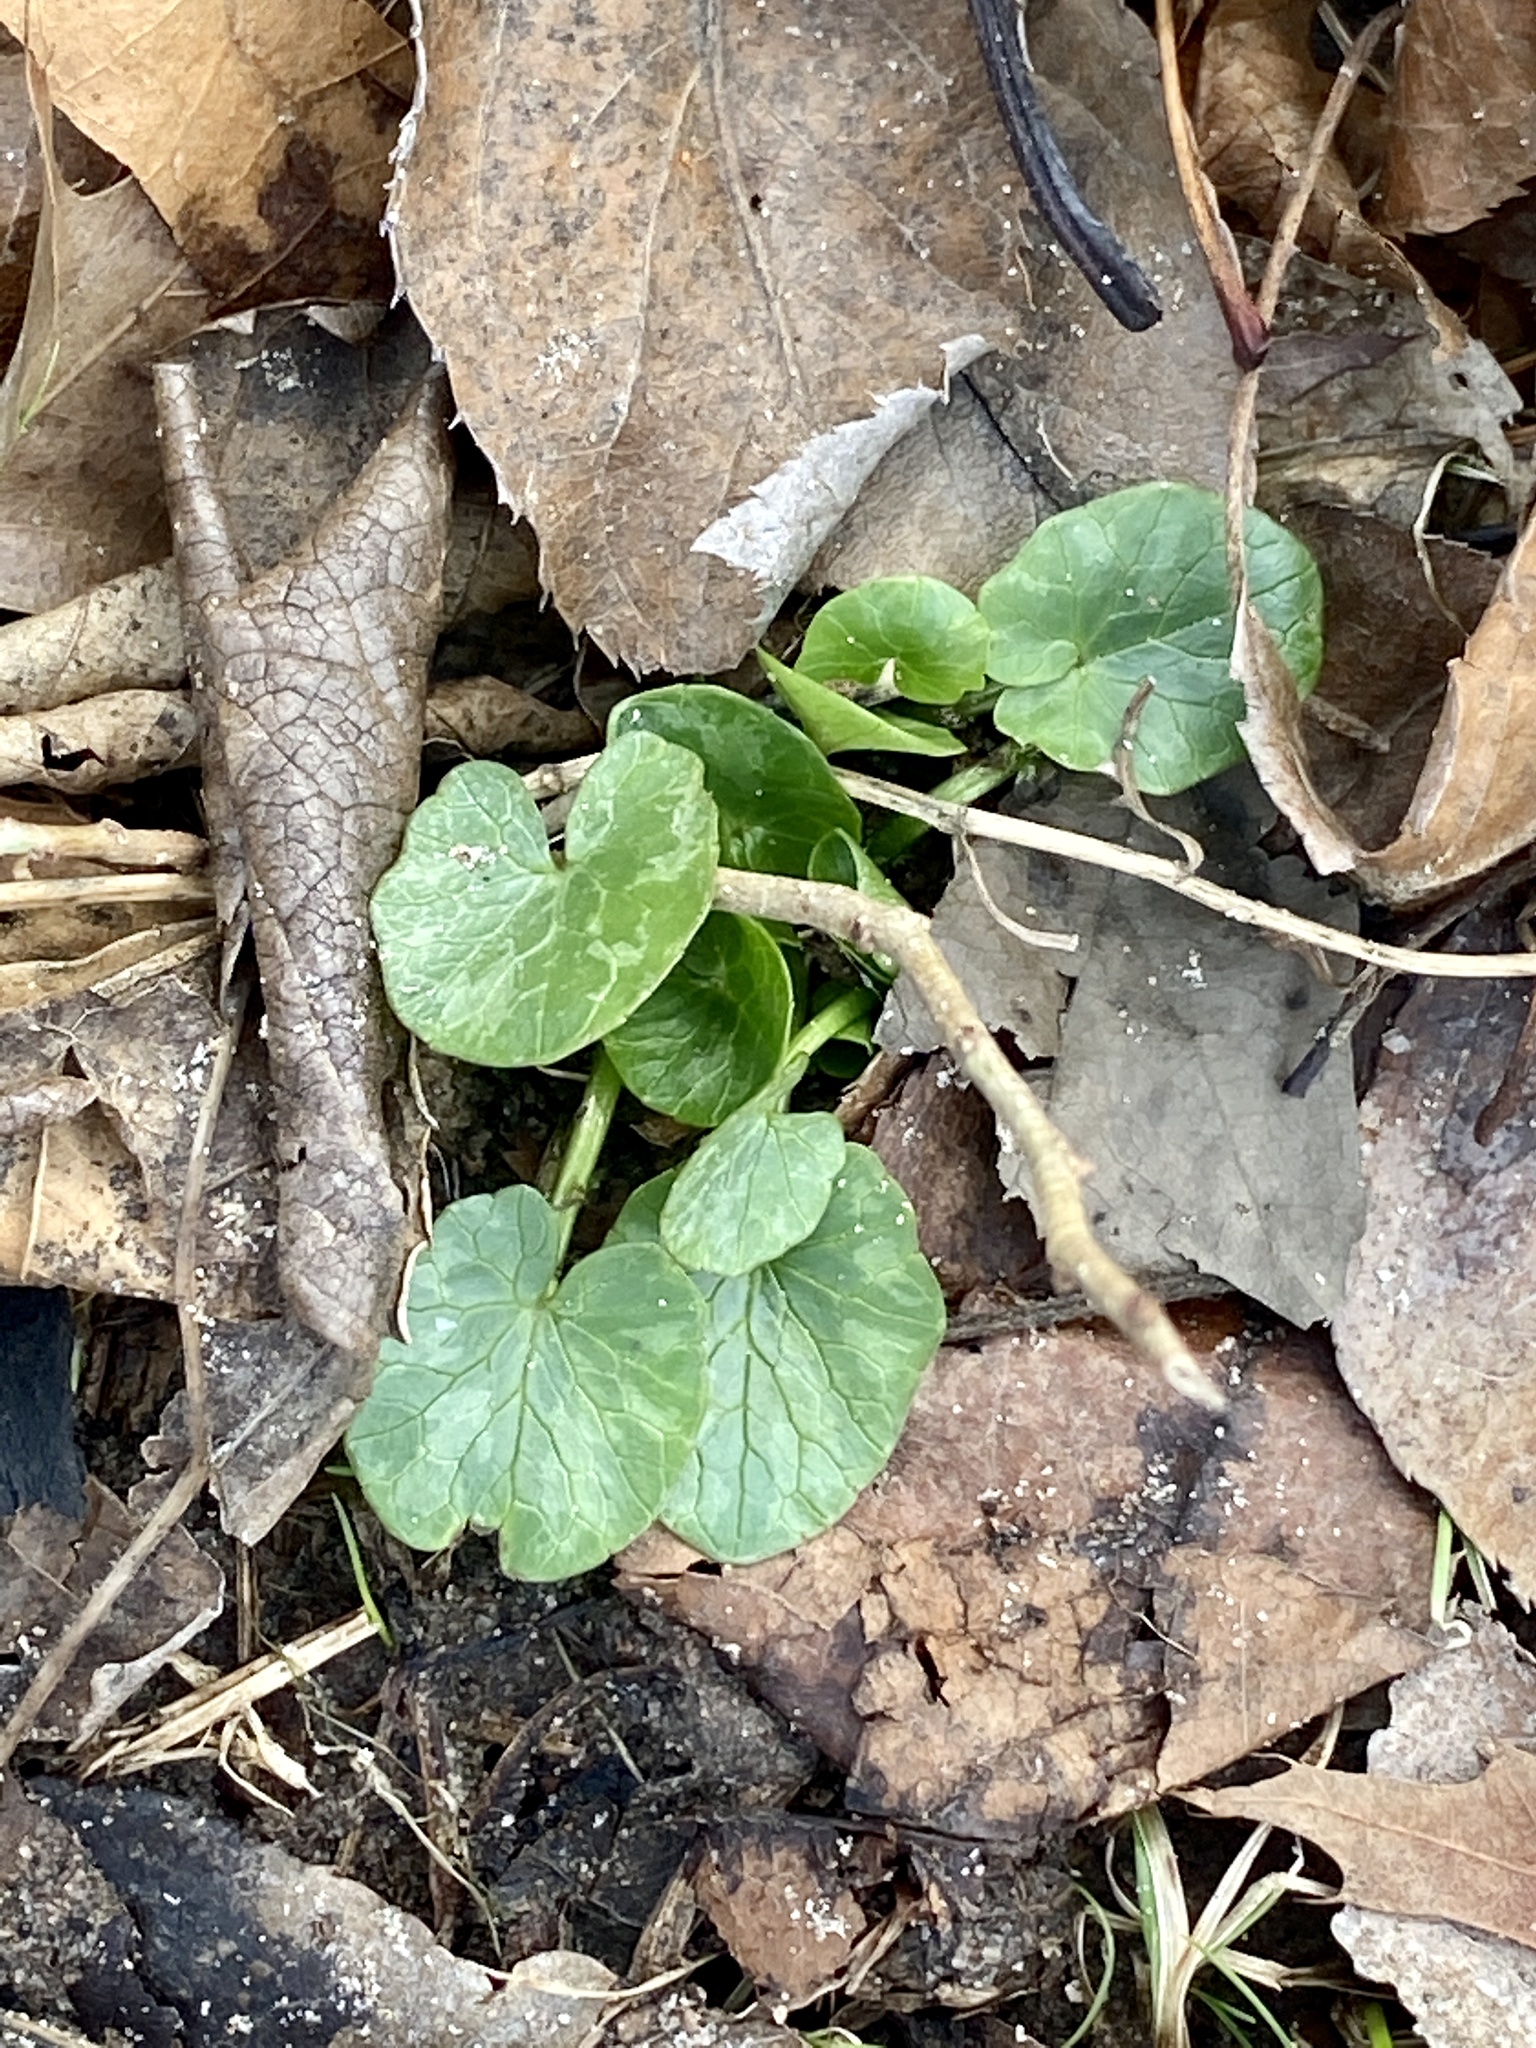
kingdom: Plantae
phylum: Tracheophyta
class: Magnoliopsida
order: Ranunculales
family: Ranunculaceae
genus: Ficaria
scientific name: Ficaria verna
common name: Lesser celandine
